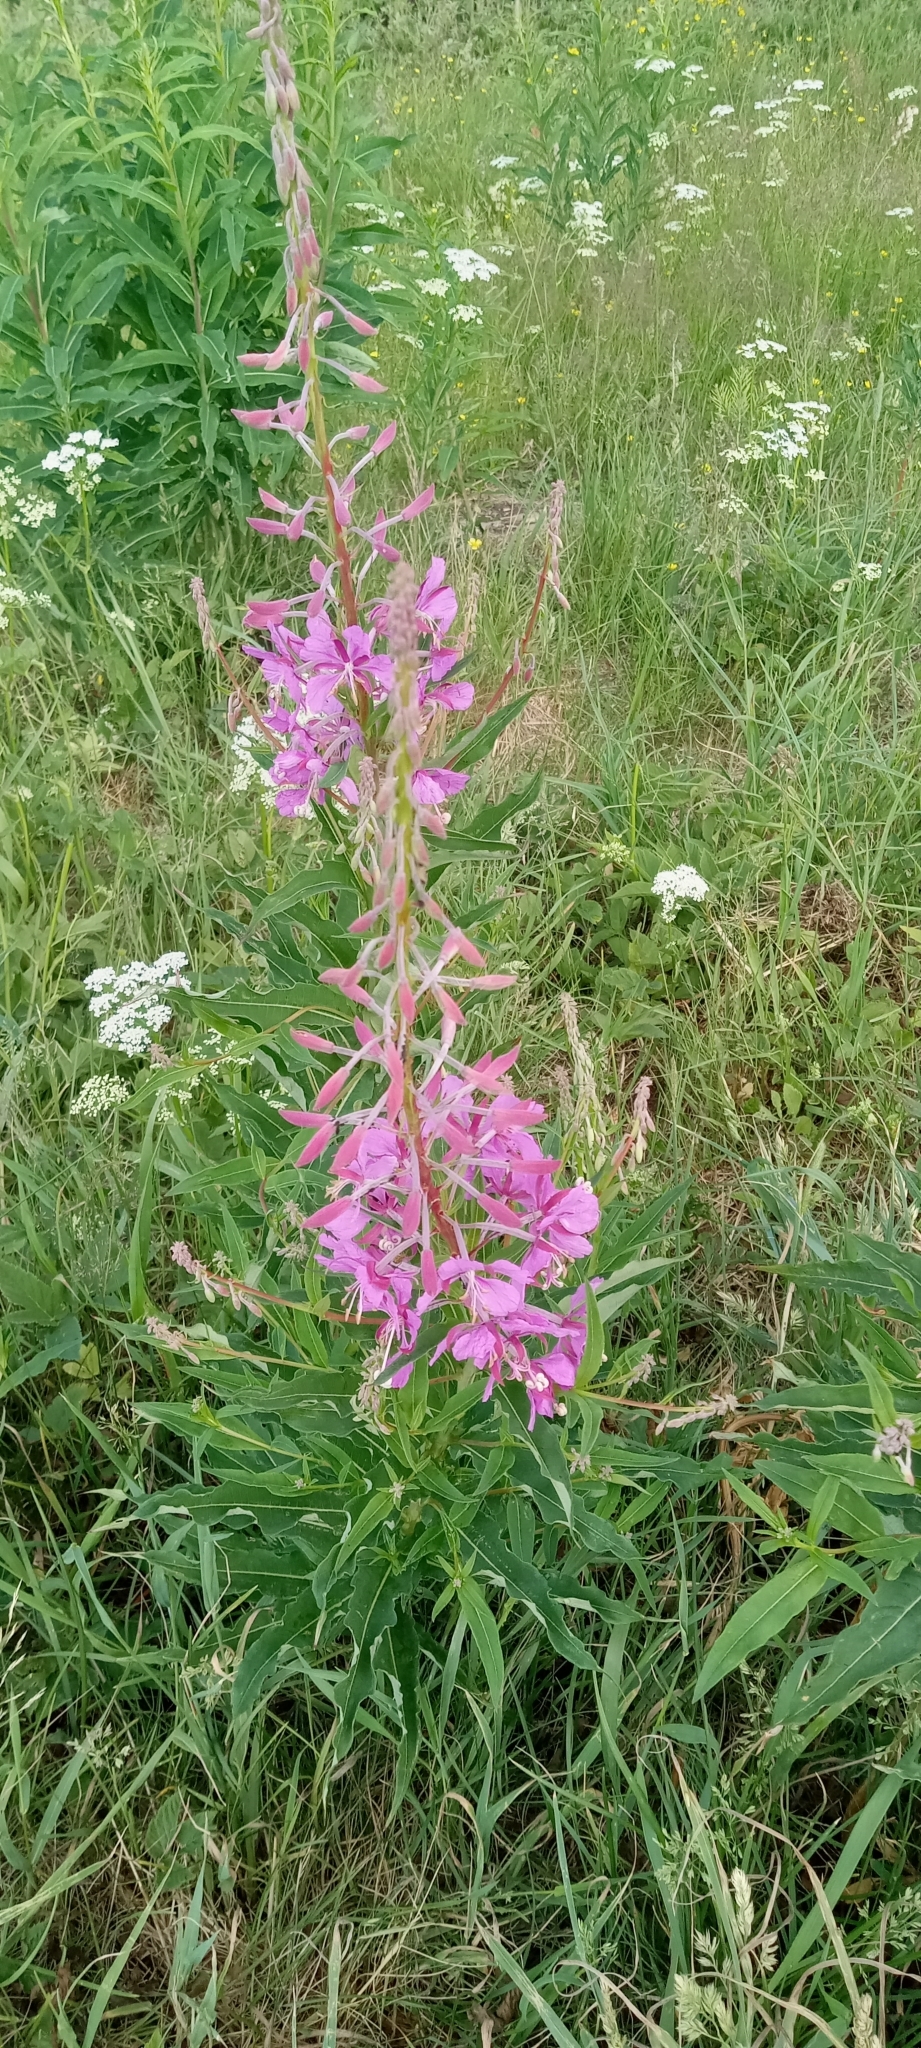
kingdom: Plantae
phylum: Tracheophyta
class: Magnoliopsida
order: Myrtales
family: Onagraceae
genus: Chamaenerion
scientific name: Chamaenerion angustifolium
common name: Fireweed
